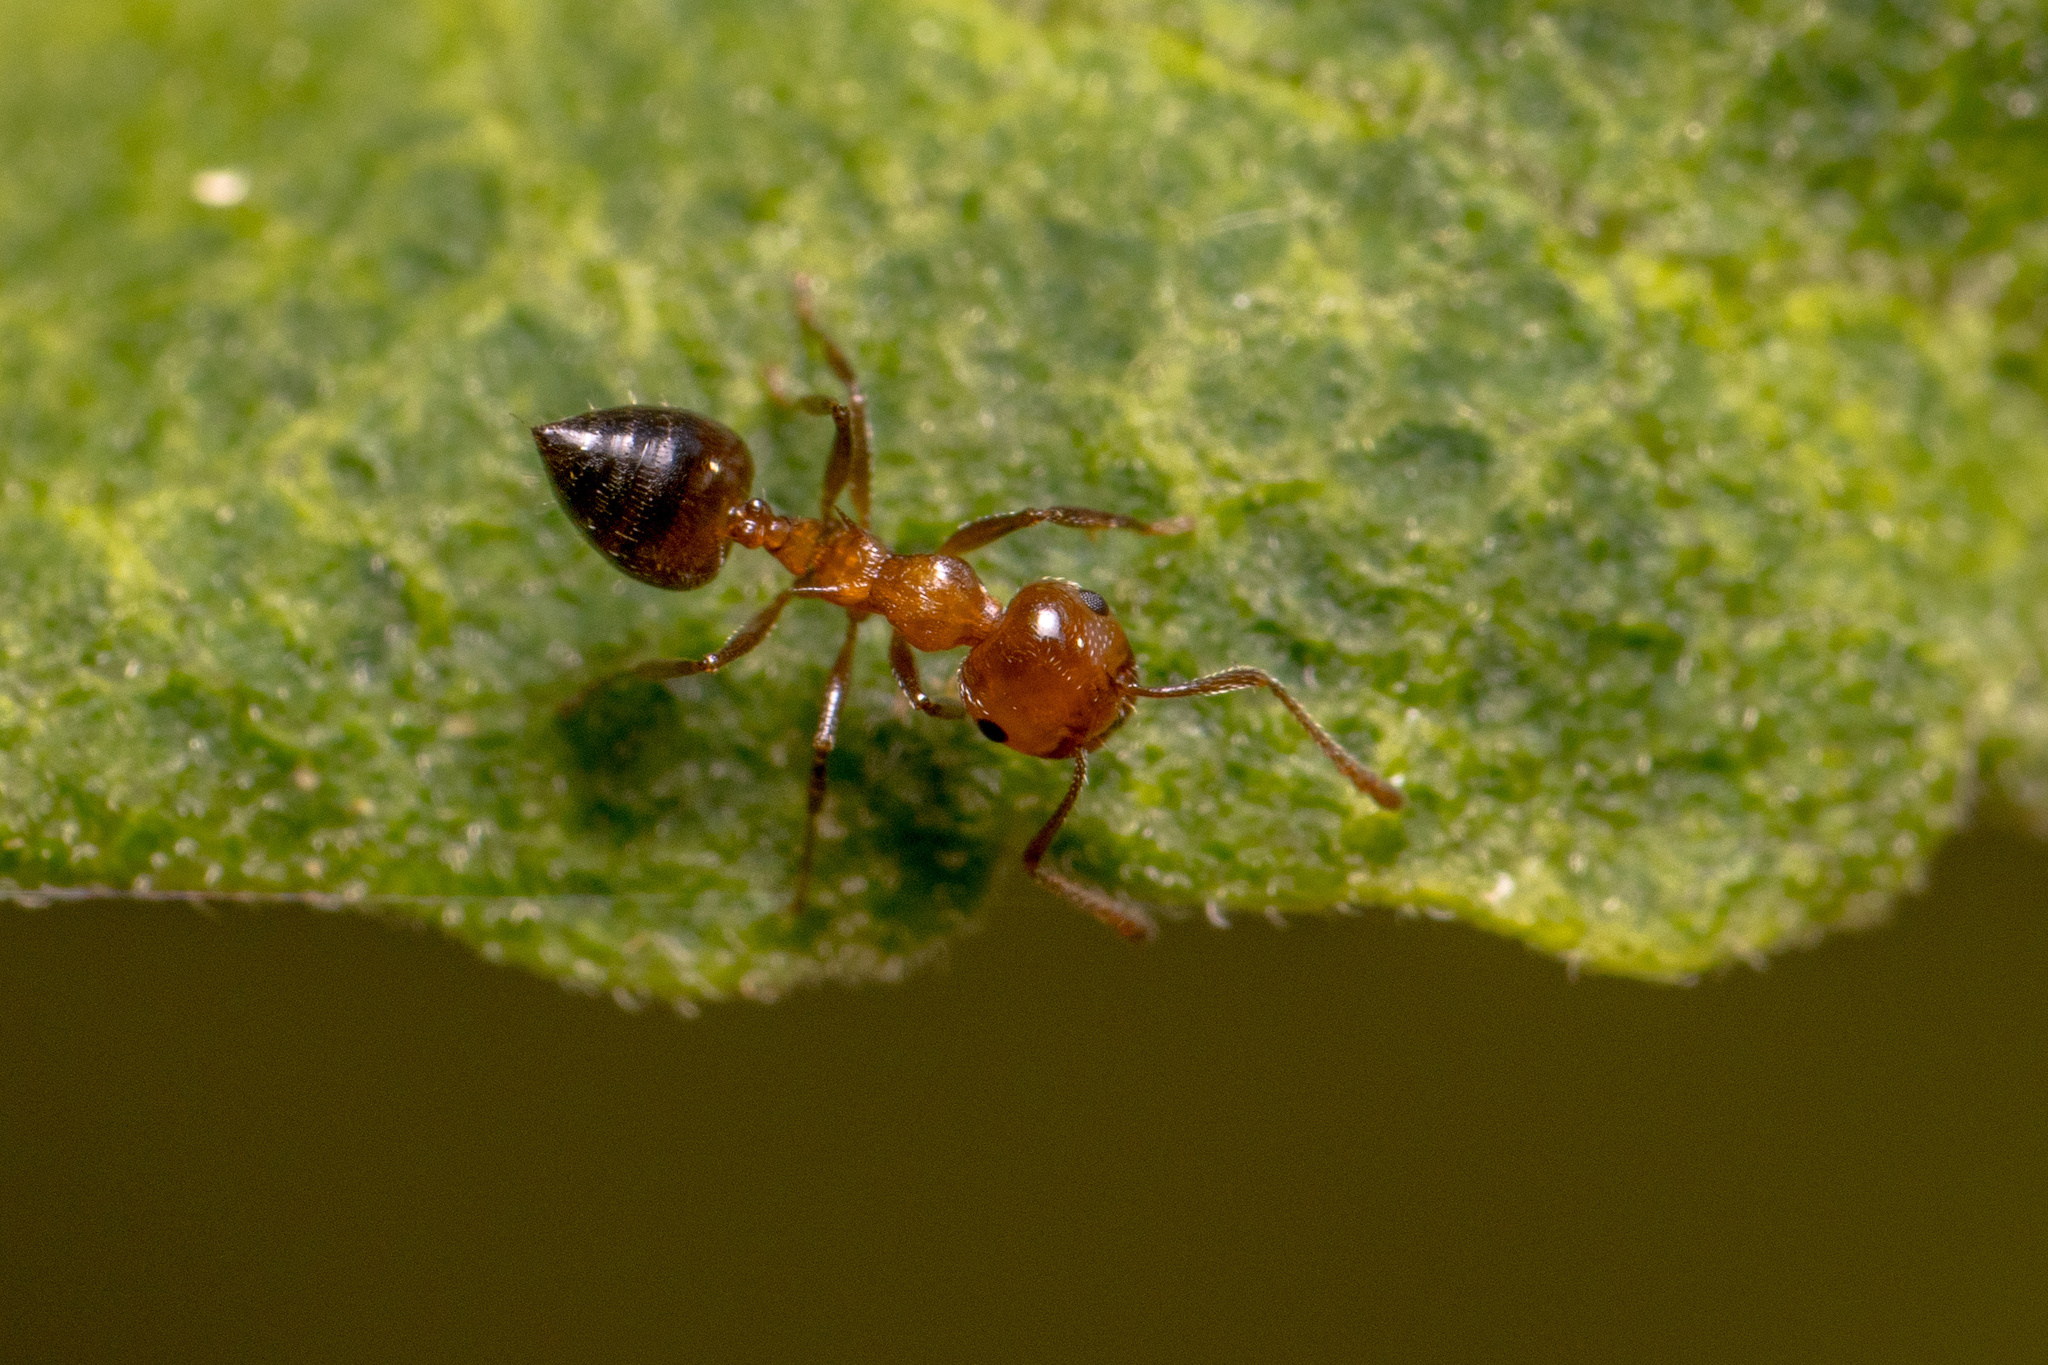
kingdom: Animalia
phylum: Arthropoda
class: Insecta
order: Hymenoptera
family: Formicidae
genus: Crematogaster
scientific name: Crematogaster laeviuscula
